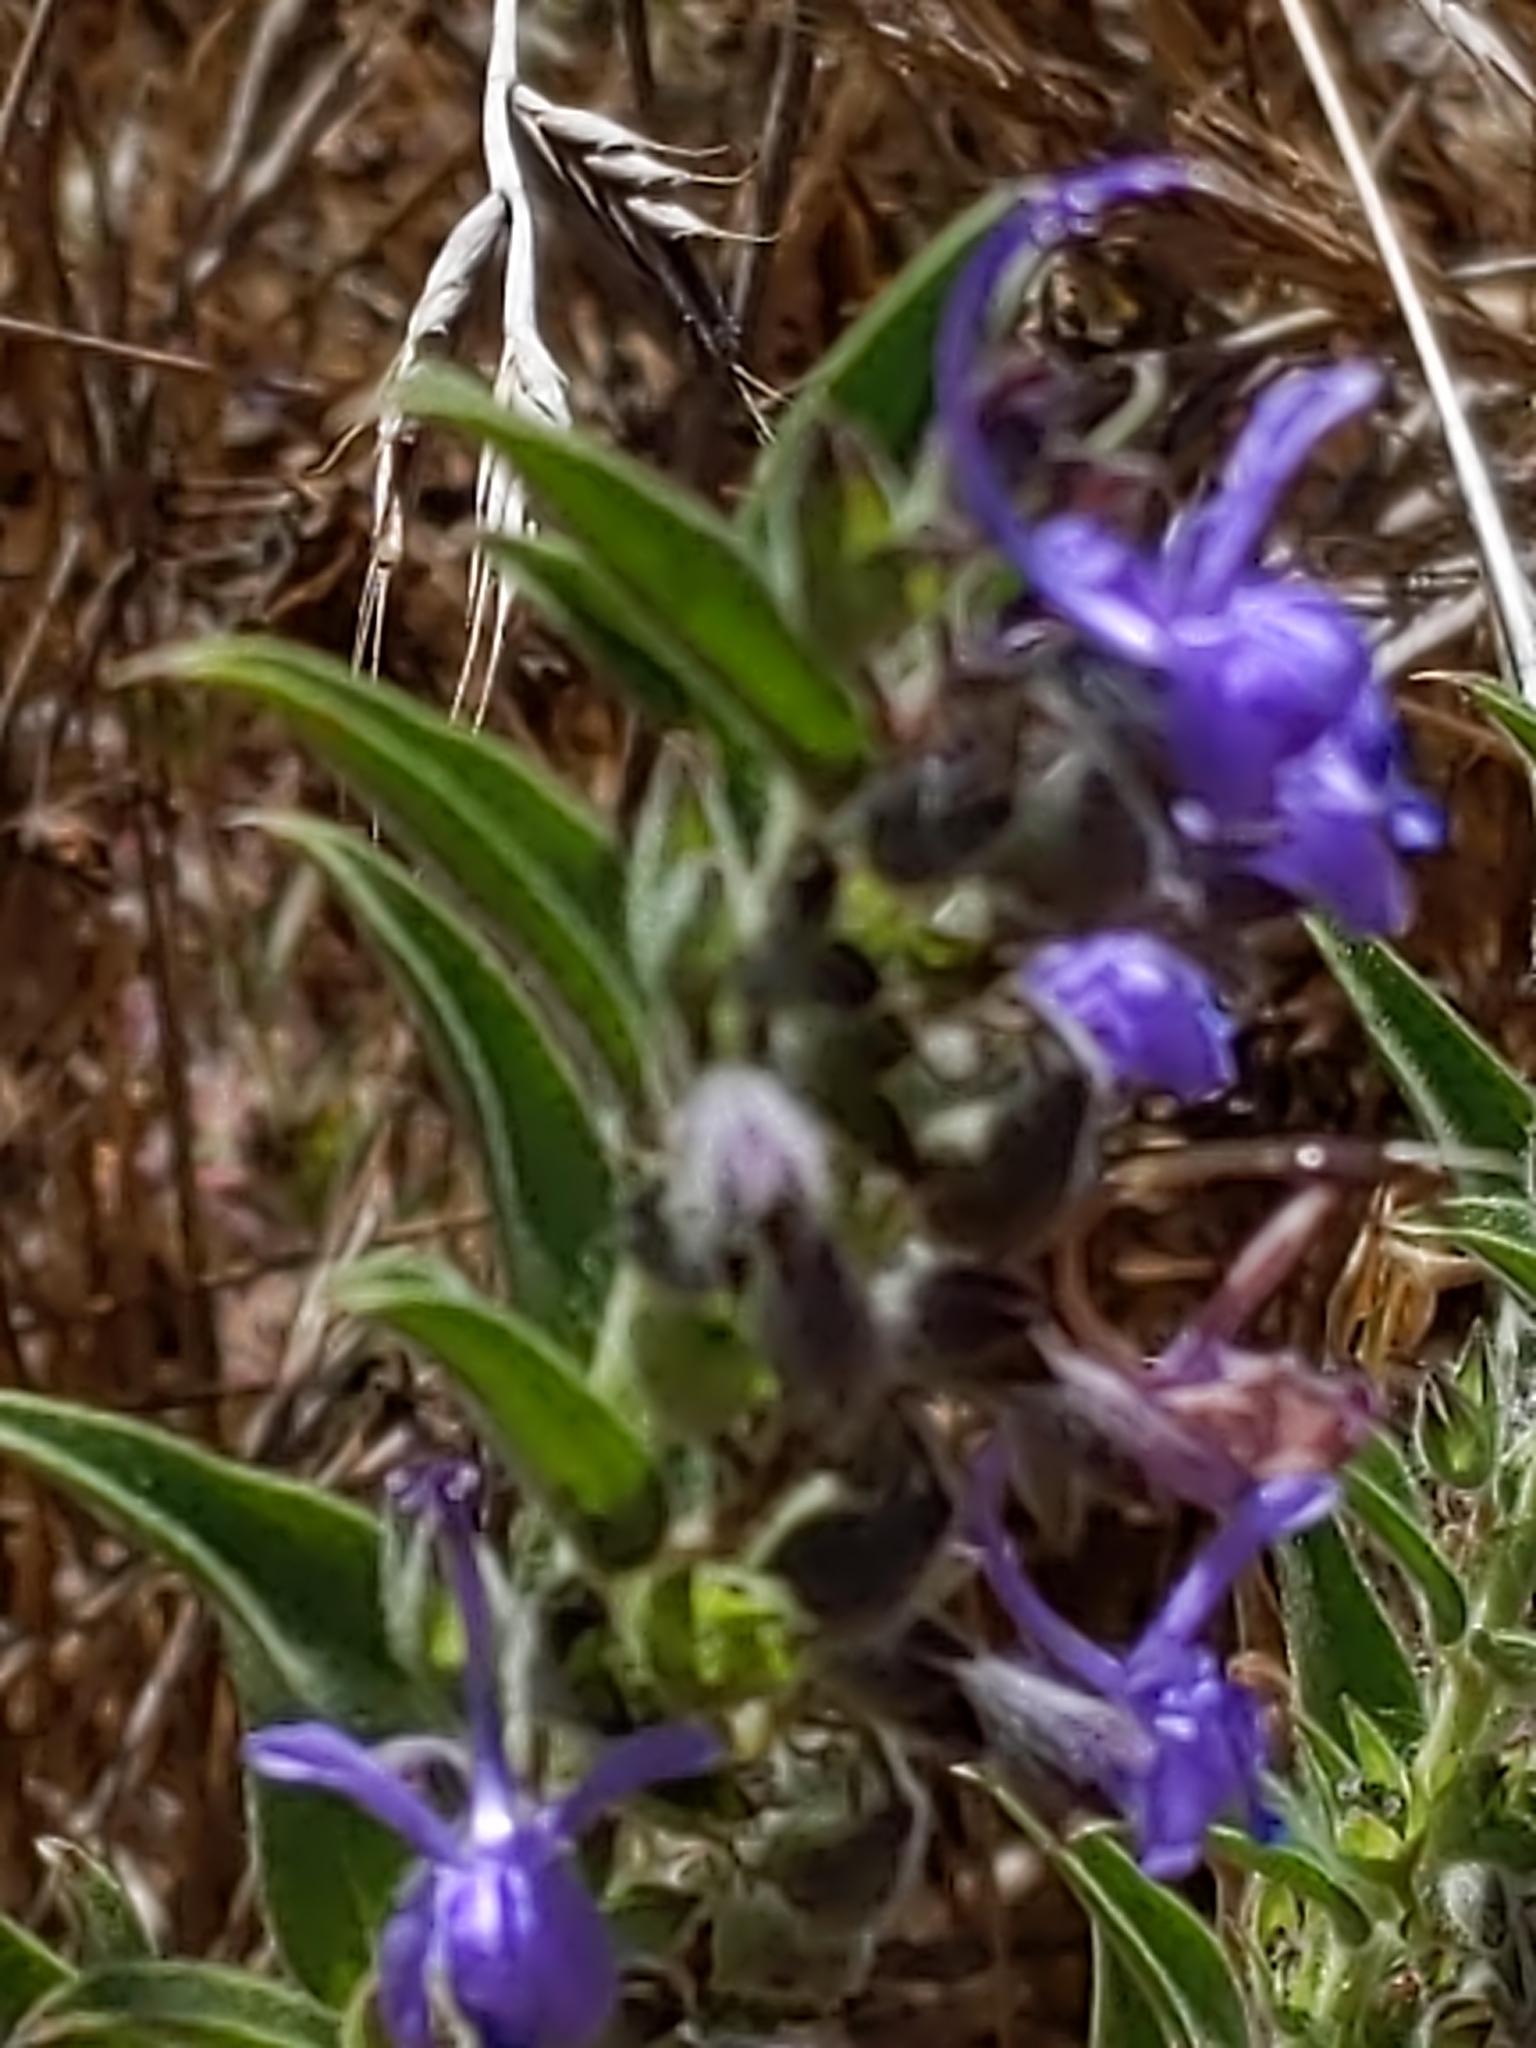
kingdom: Plantae
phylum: Tracheophyta
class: Magnoliopsida
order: Lamiales
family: Lamiaceae
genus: Trichostema
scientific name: Trichostema lanceolatum
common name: Vinegar-weed
